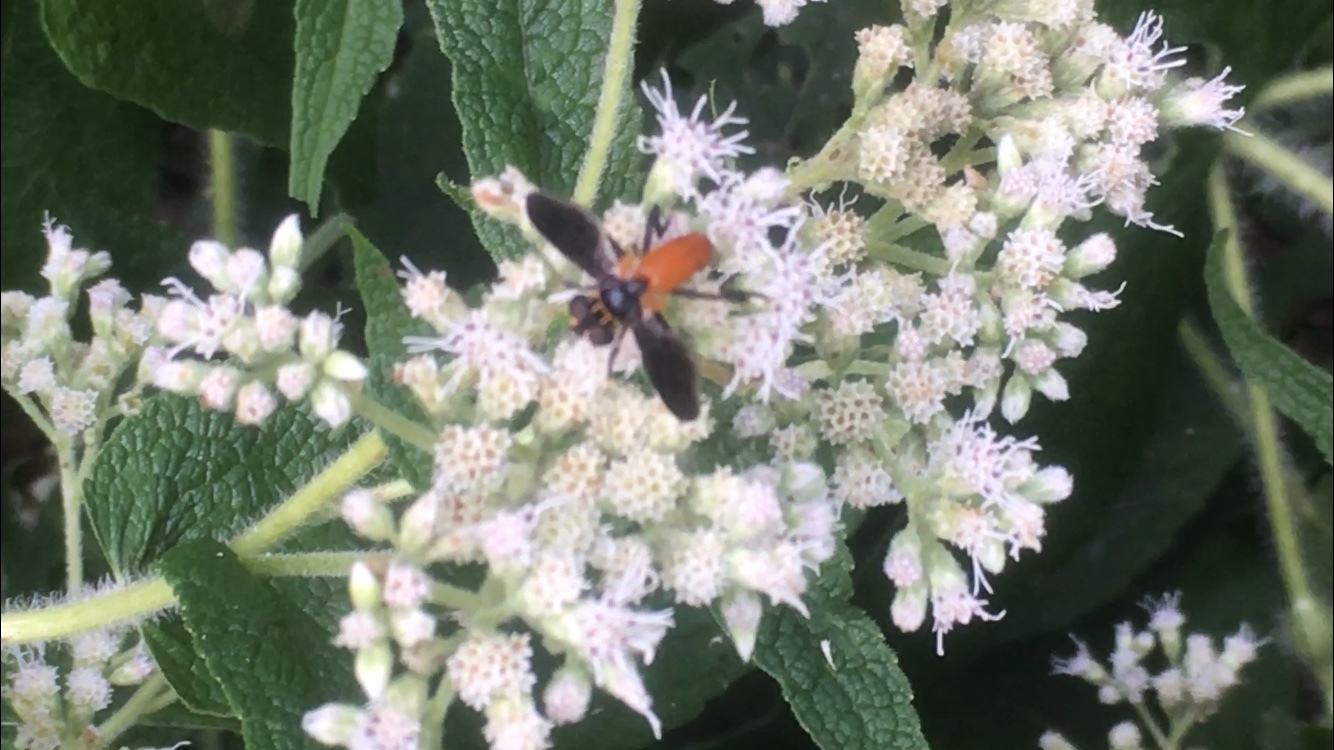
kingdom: Animalia
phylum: Arthropoda
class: Insecta
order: Diptera
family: Tachinidae
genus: Trichopoda
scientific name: Trichopoda pennipes
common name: Tachinid fly
